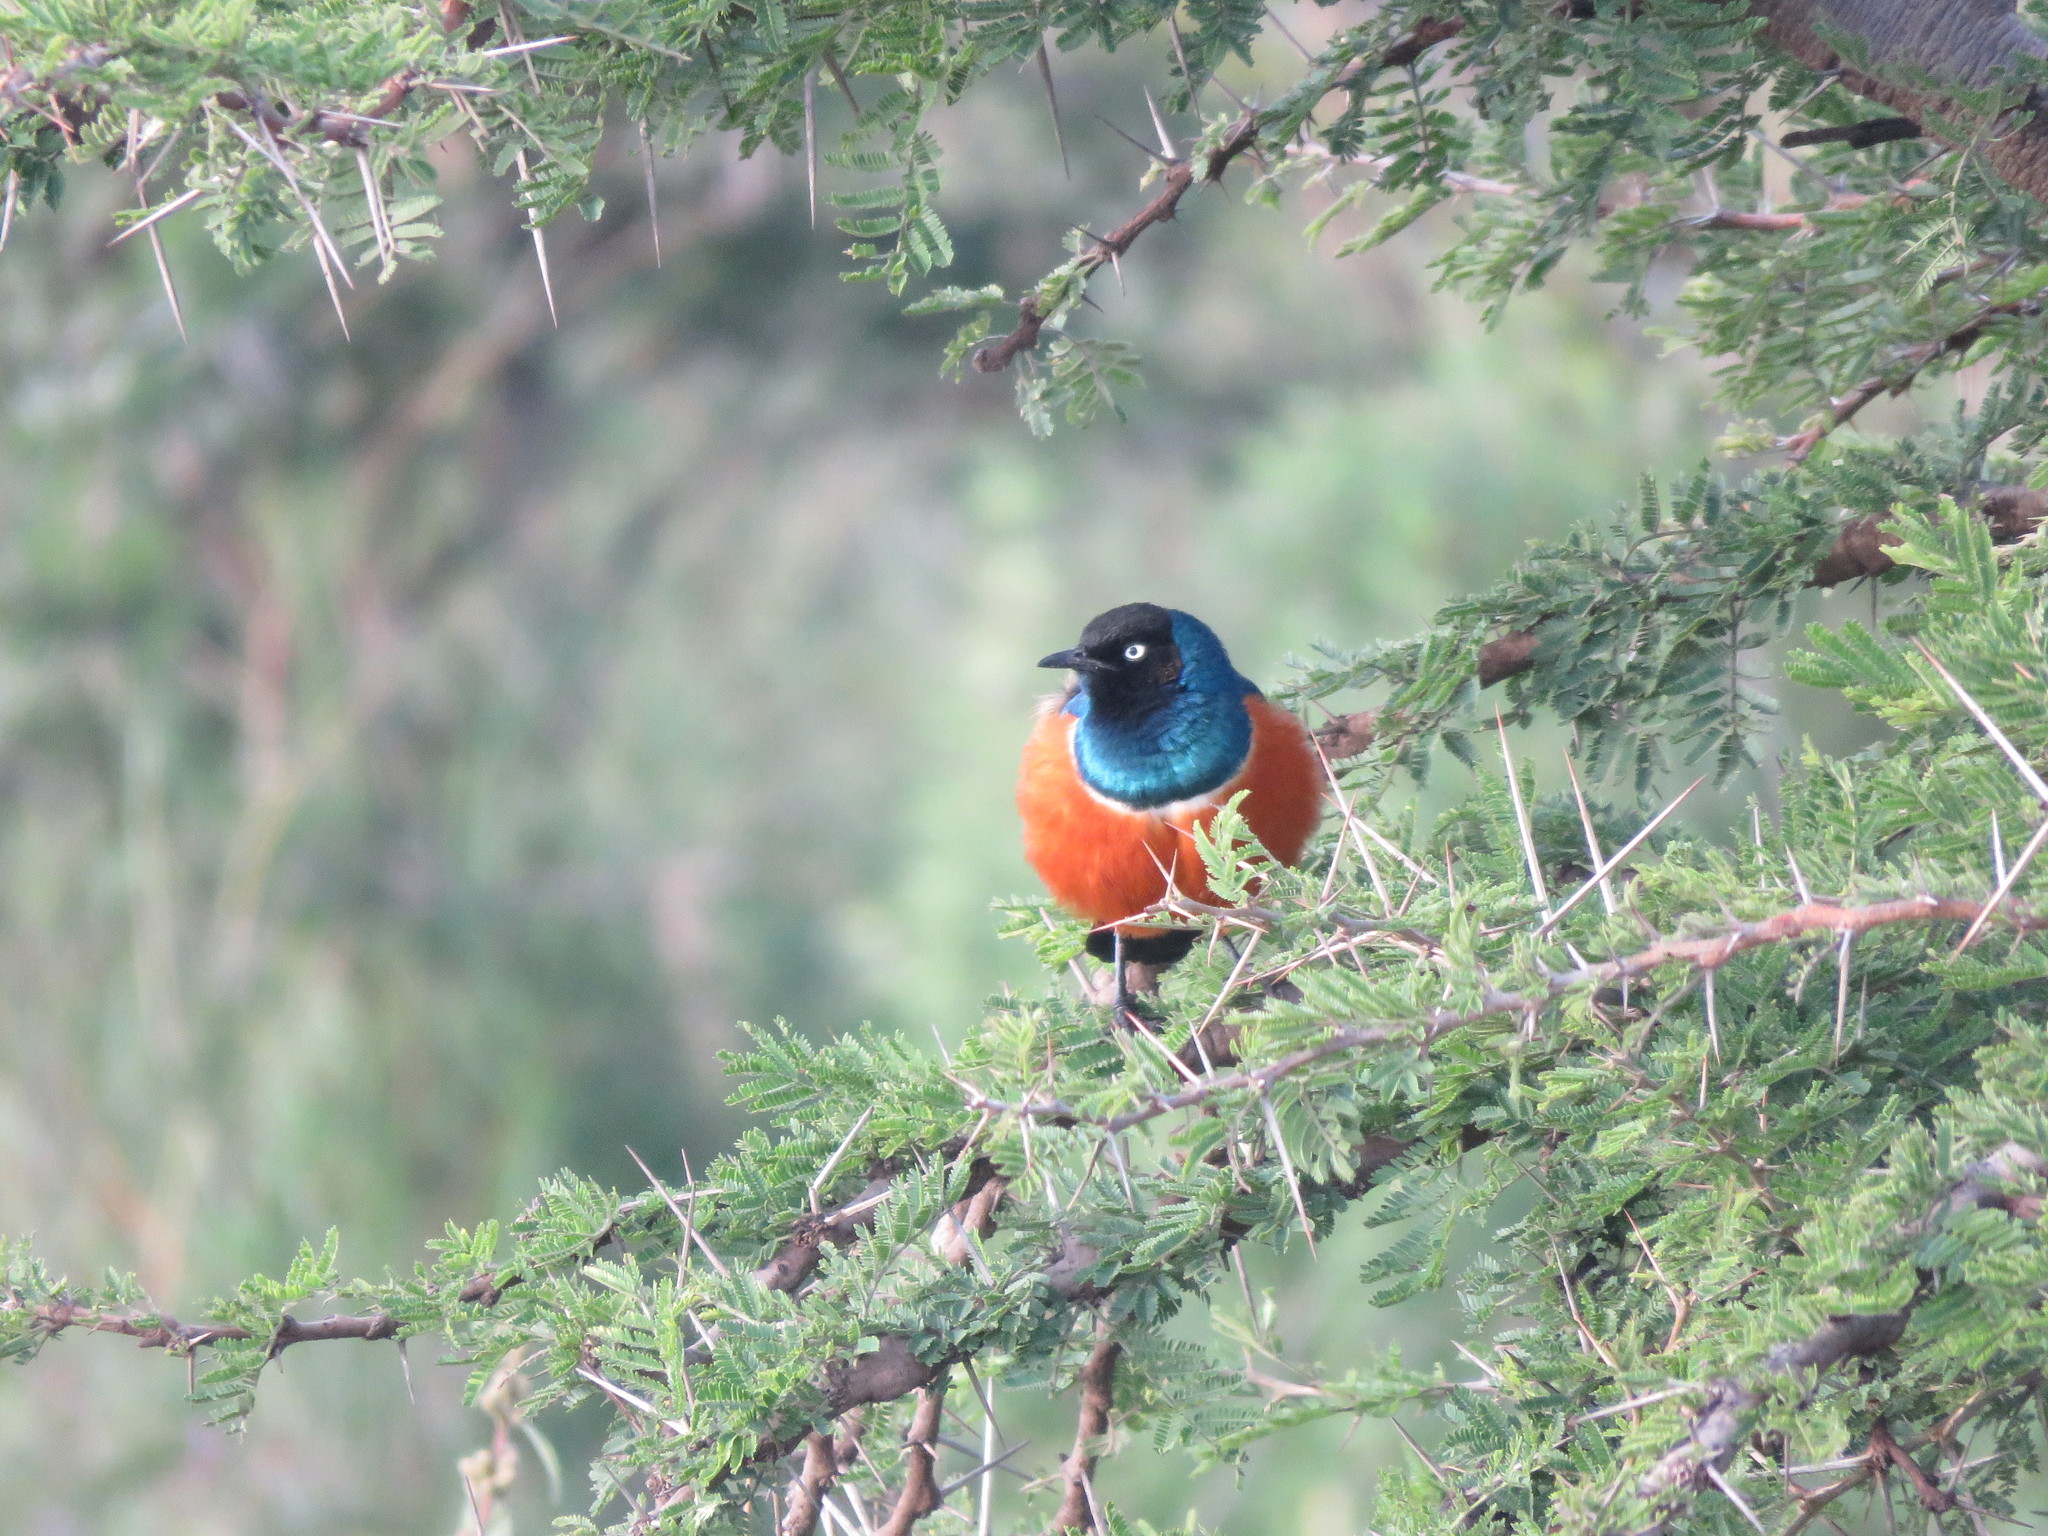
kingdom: Animalia
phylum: Chordata
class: Aves
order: Passeriformes
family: Sturnidae
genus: Lamprotornis
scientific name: Lamprotornis superbus
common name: Superb starling
